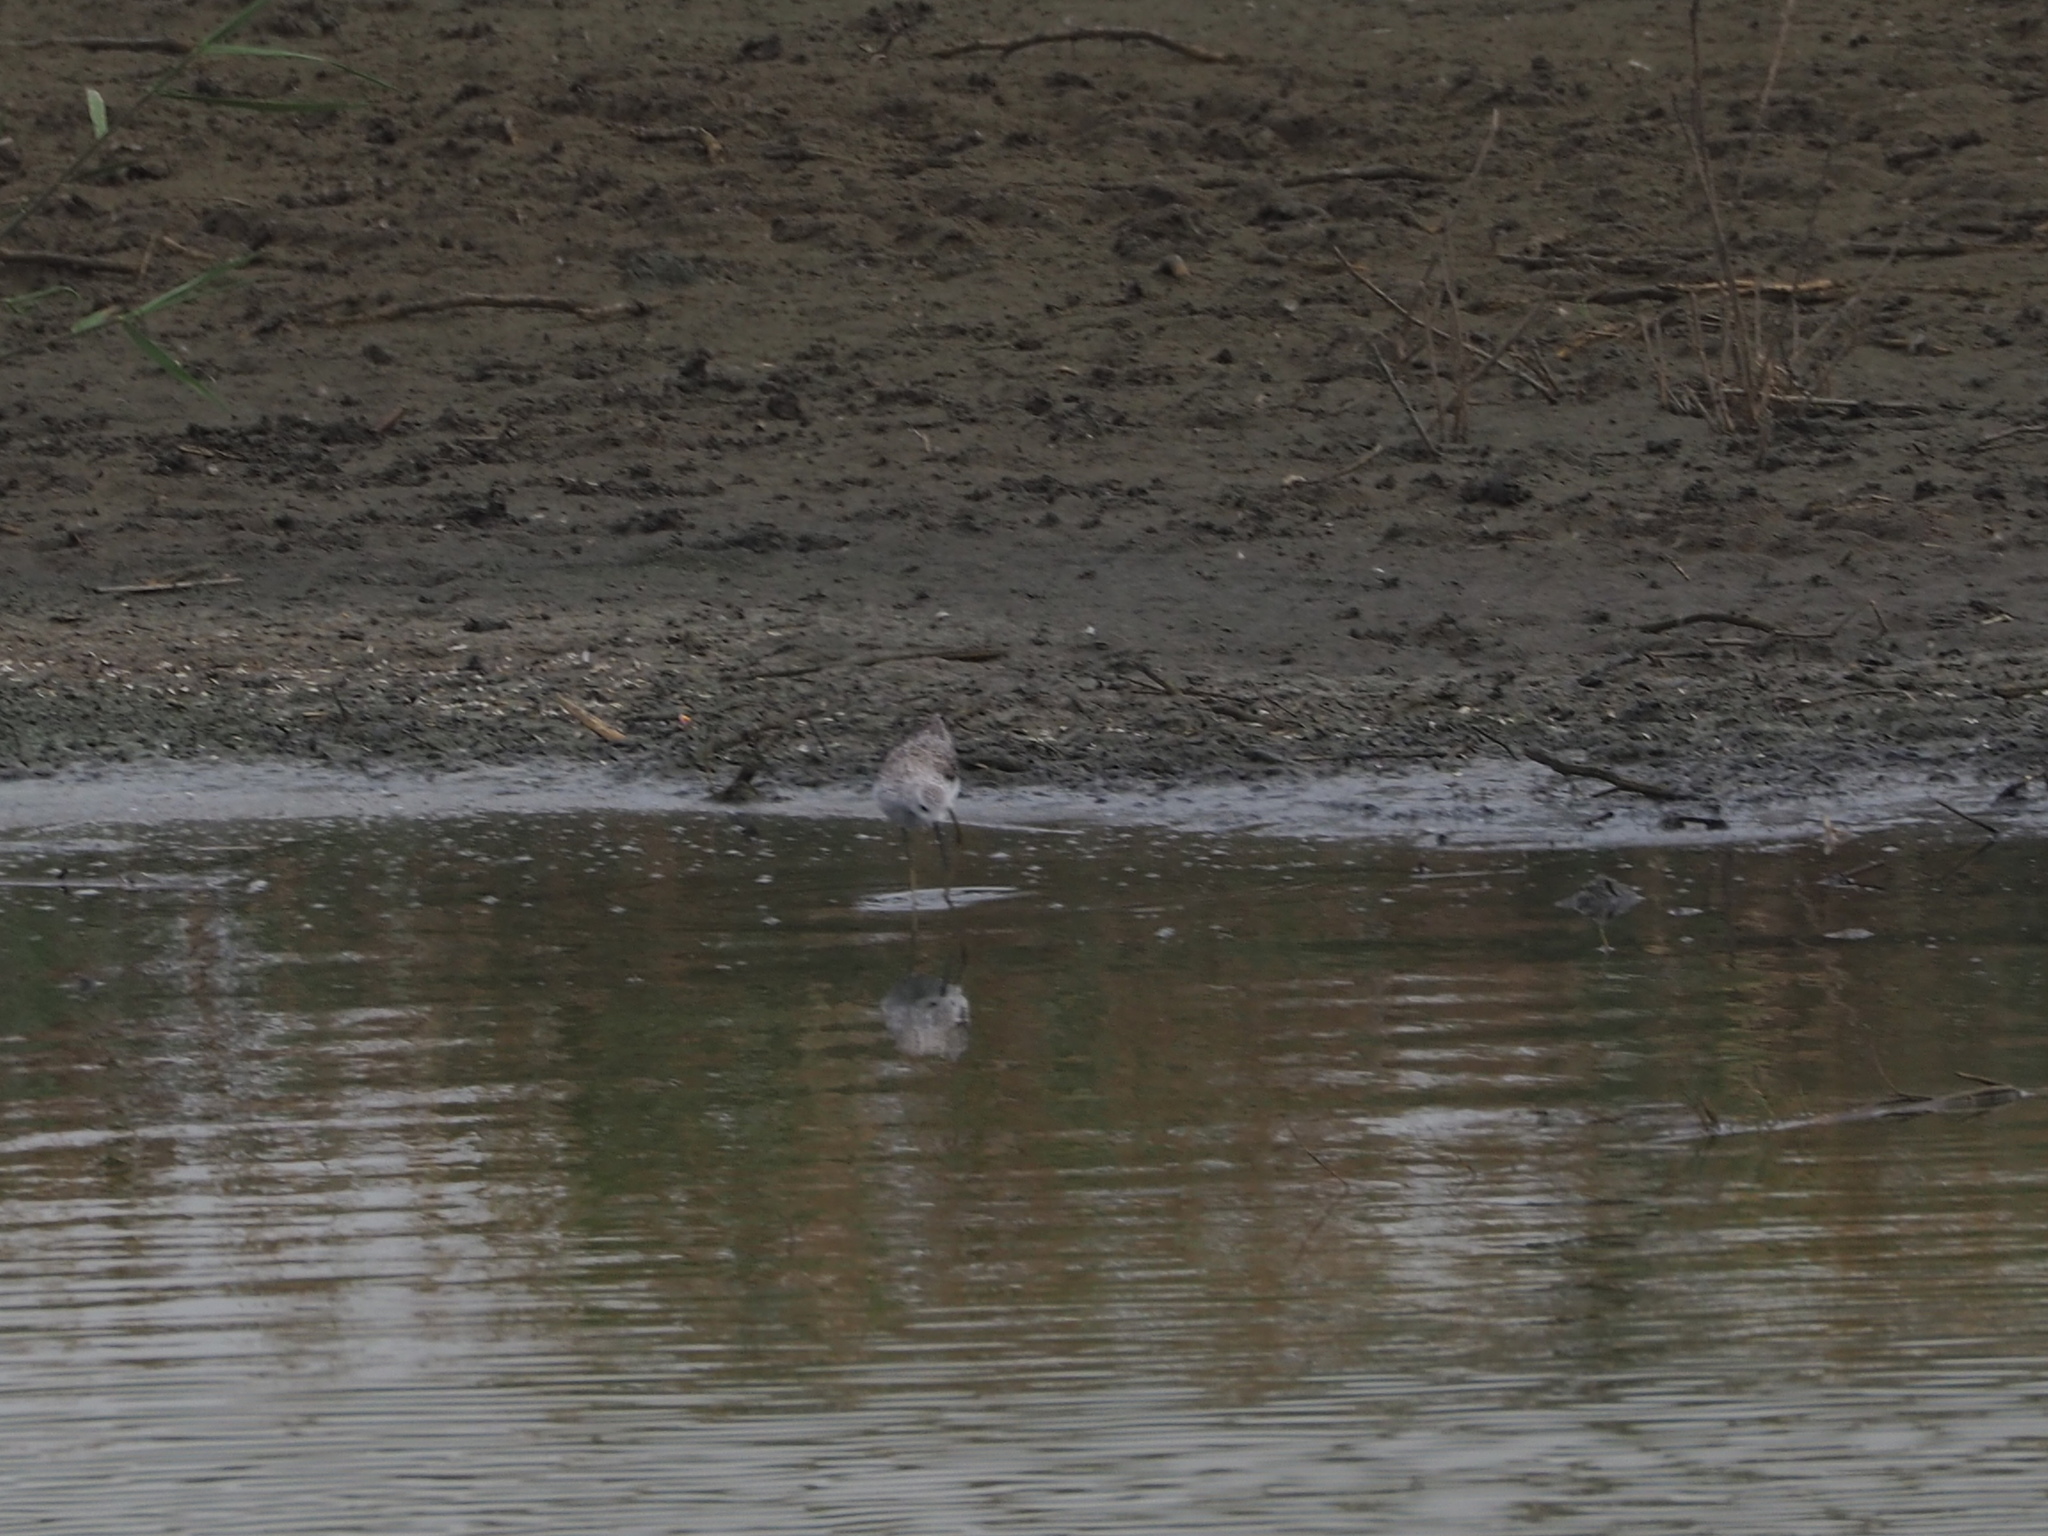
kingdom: Animalia
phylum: Chordata
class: Aves
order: Charadriiformes
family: Scolopacidae
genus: Tringa
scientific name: Tringa stagnatilis
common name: Marsh sandpiper
